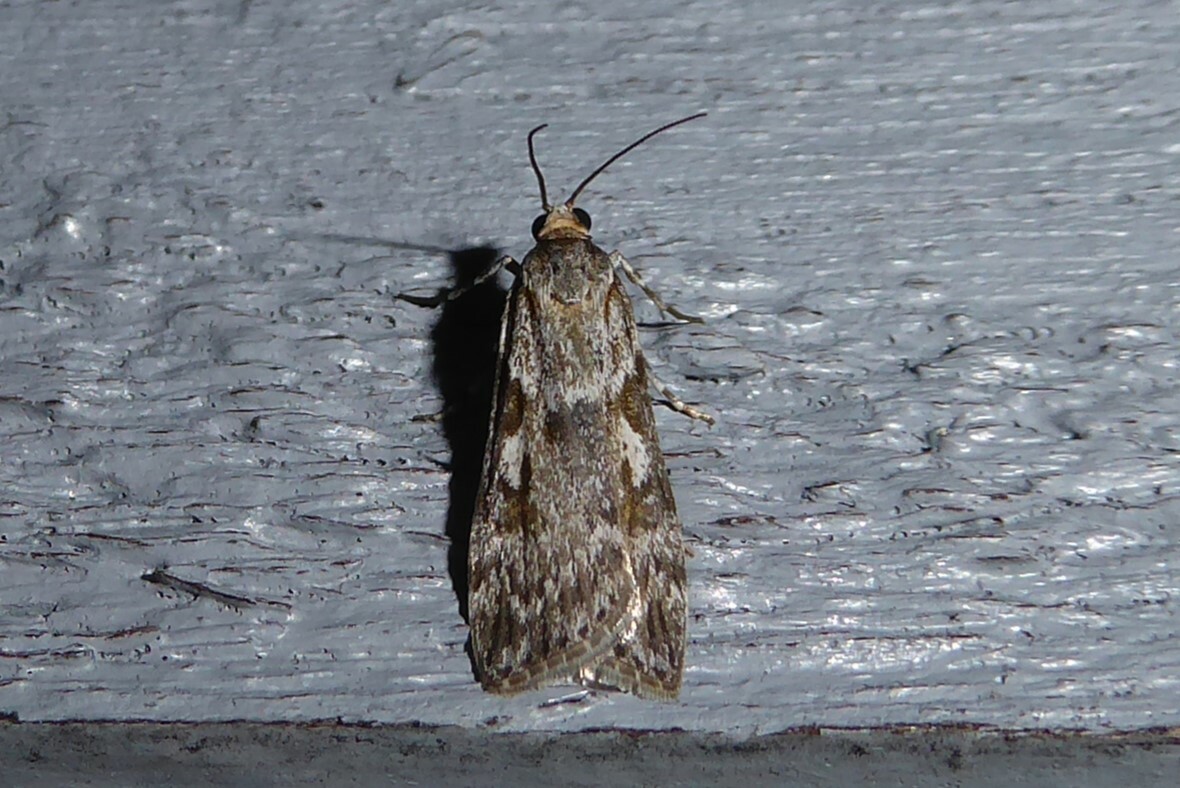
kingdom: Animalia
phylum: Arthropoda
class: Insecta
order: Lepidoptera
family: Crambidae
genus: Scoparia
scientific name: Scoparia halopis
